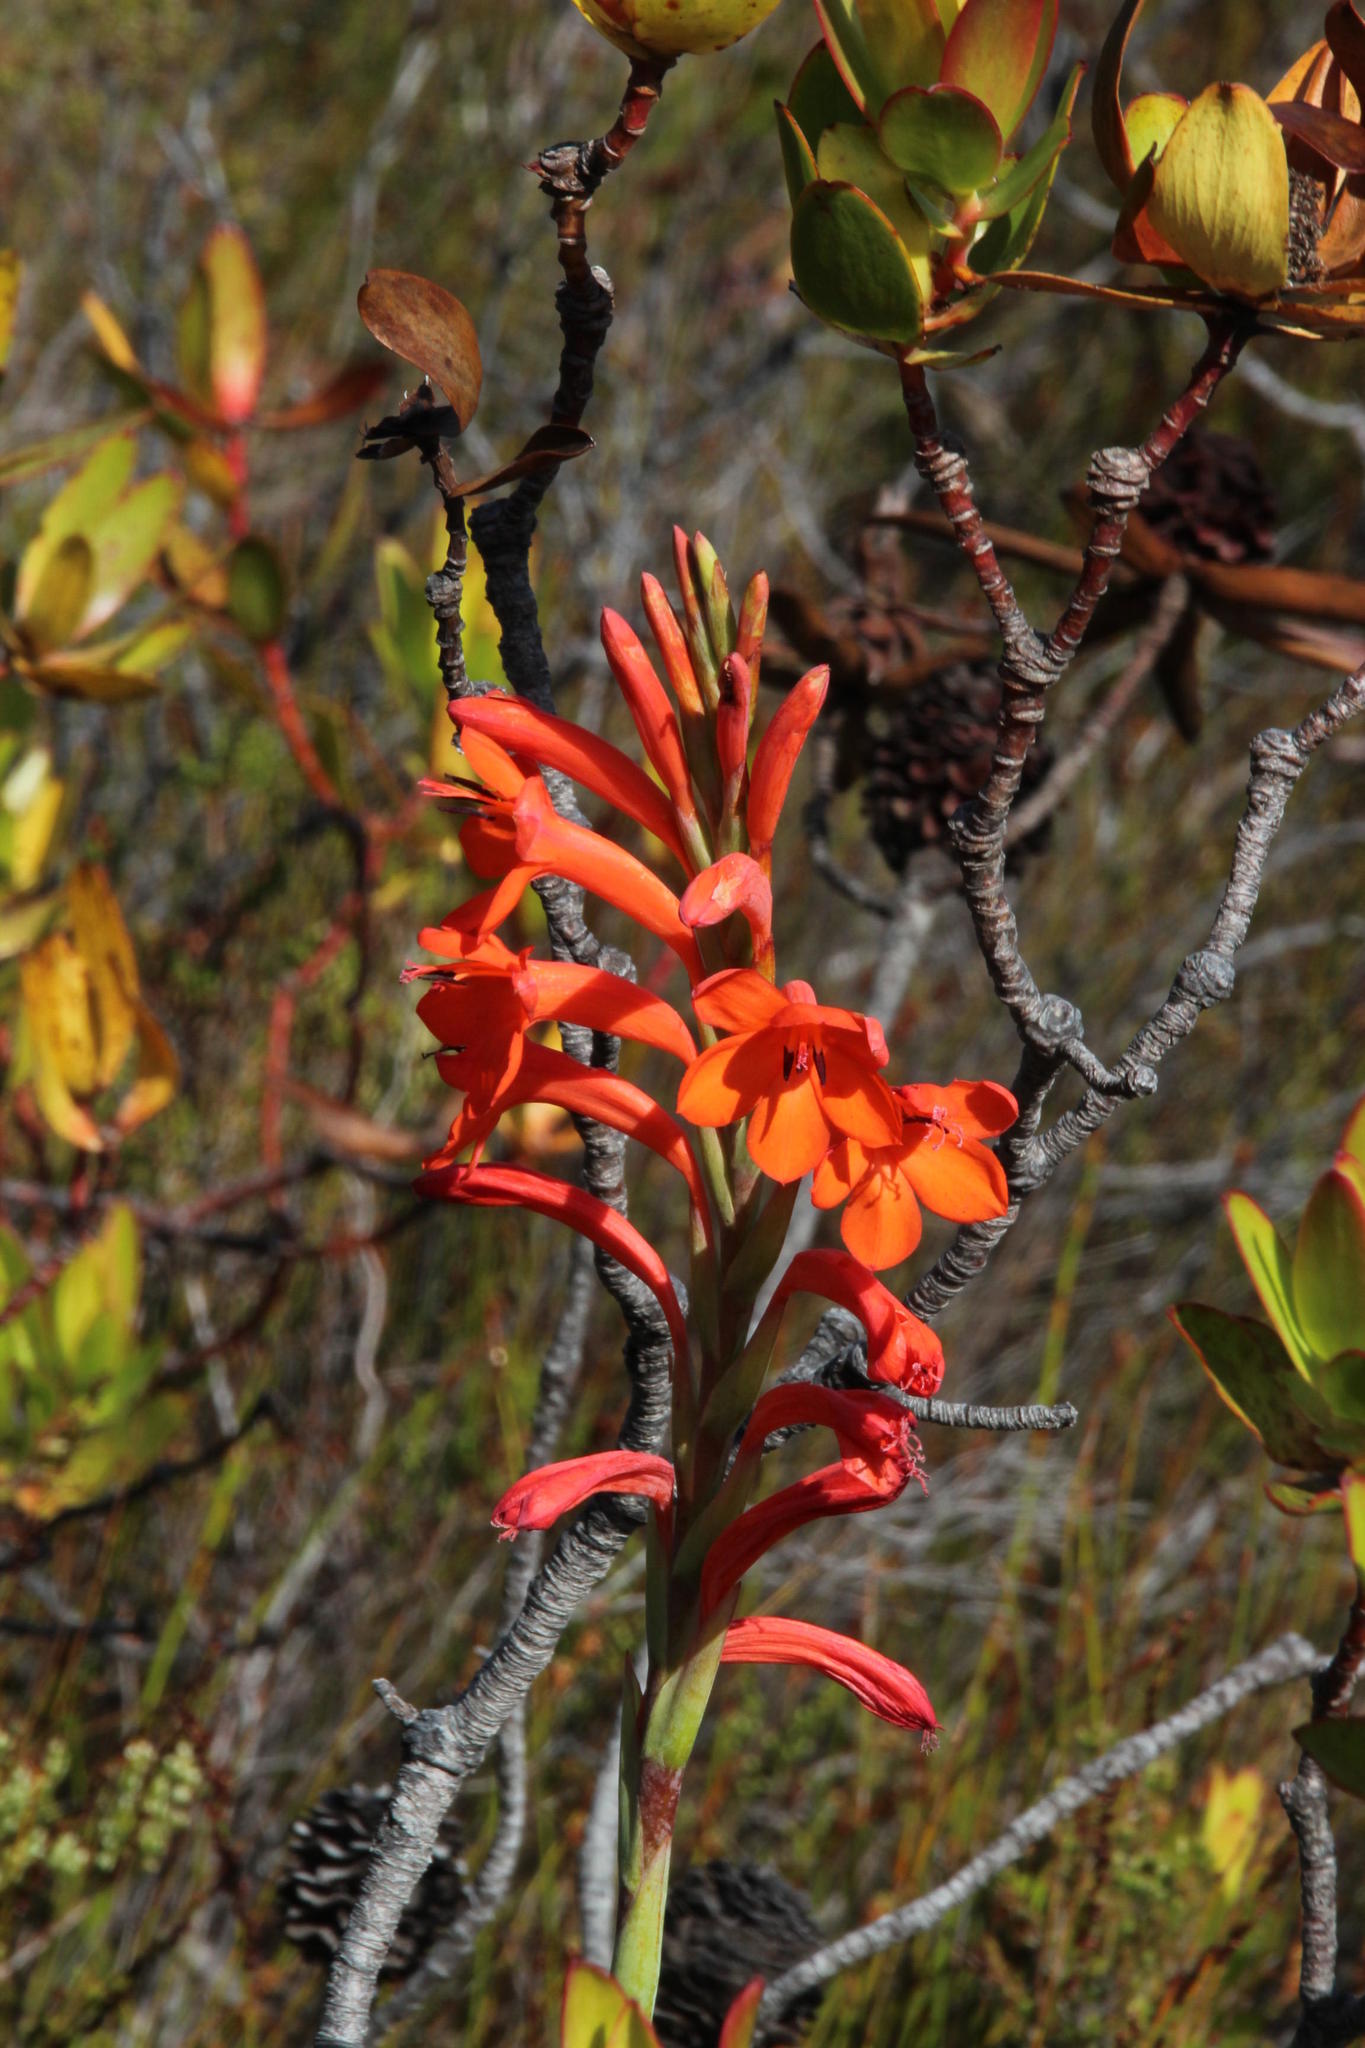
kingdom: Plantae
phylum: Tracheophyta
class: Liliopsida
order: Asparagales
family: Iridaceae
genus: Watsonia
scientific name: Watsonia schlechteri
